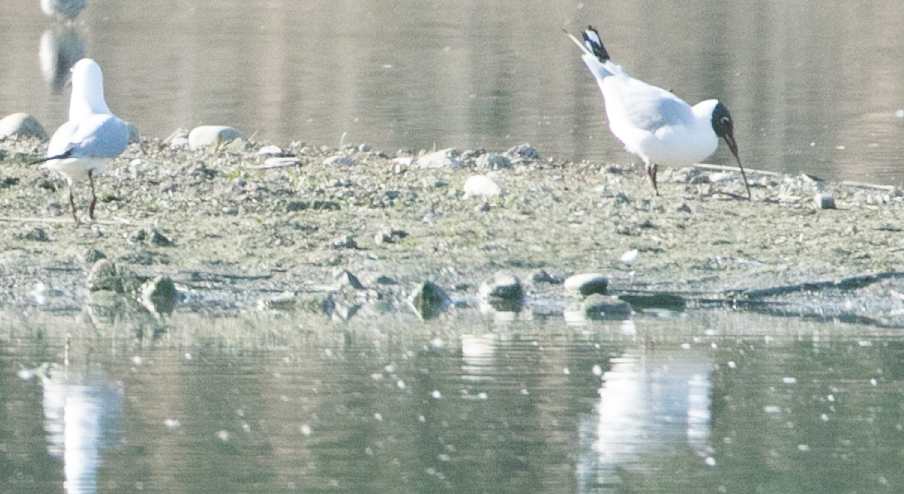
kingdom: Animalia
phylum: Chordata
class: Aves
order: Charadriiformes
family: Laridae
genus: Chroicocephalus
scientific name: Chroicocephalus ridibundus
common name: Black-headed gull
